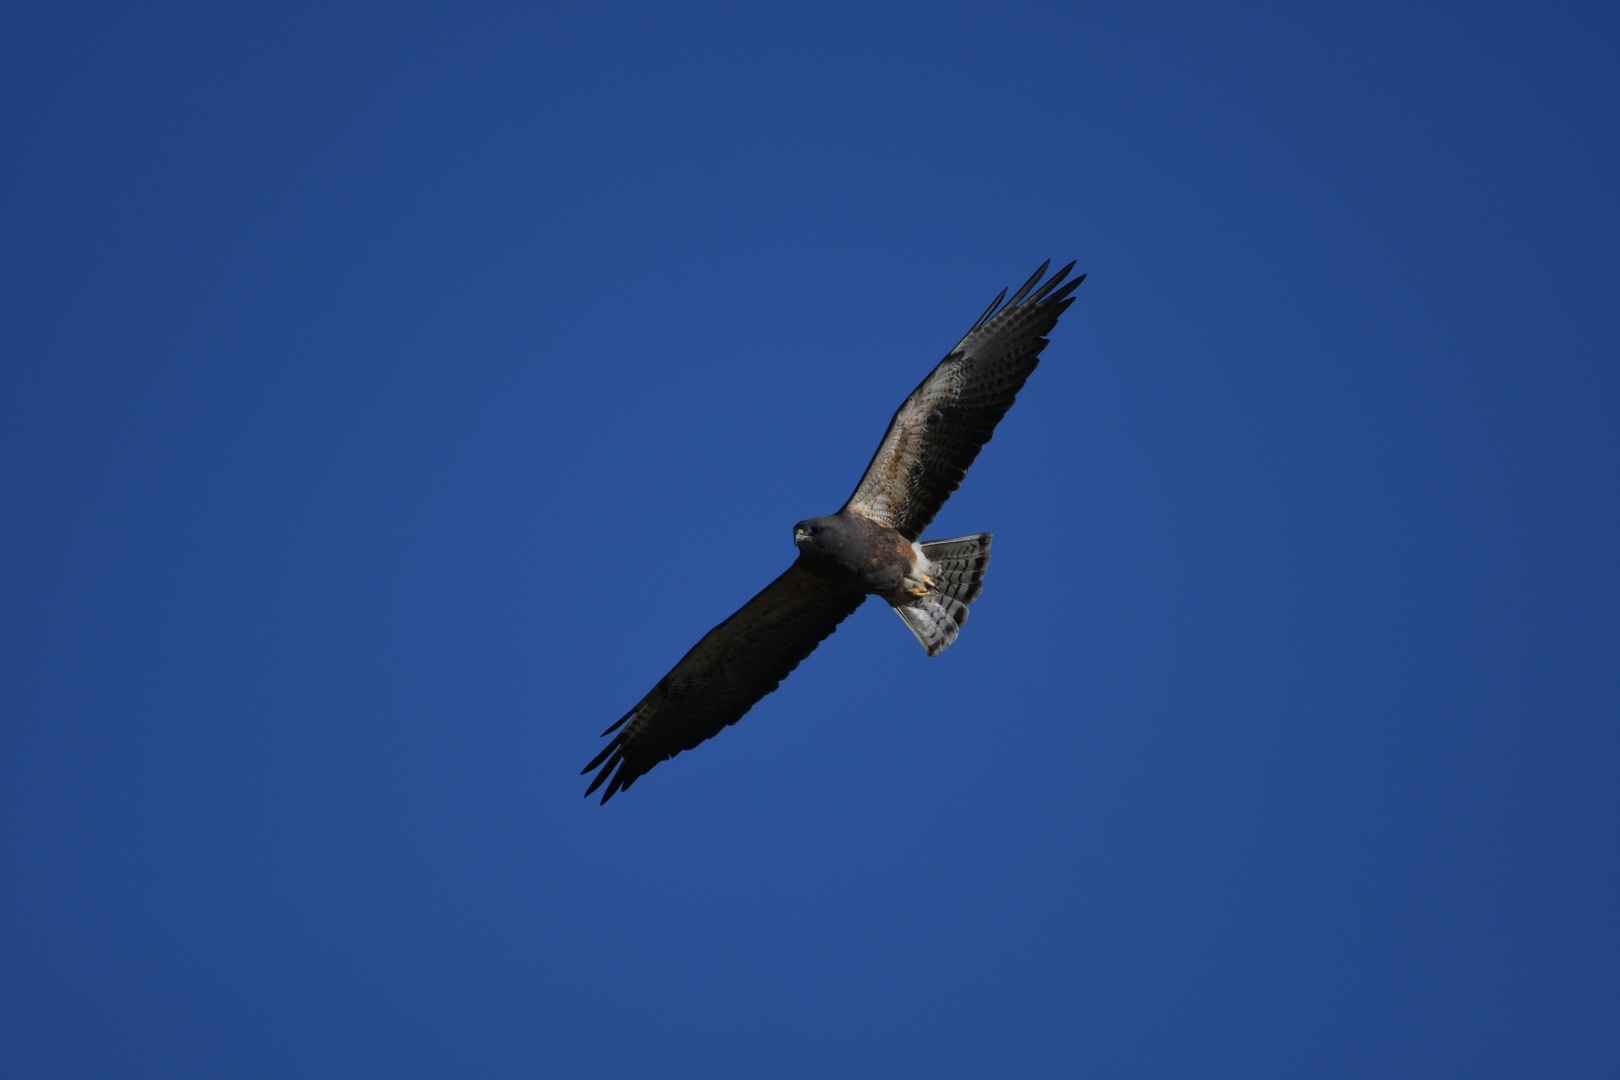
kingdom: Animalia
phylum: Chordata
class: Aves
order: Accipitriformes
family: Accipitridae
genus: Buteo
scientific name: Buteo swainsoni
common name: Swainson's hawk
